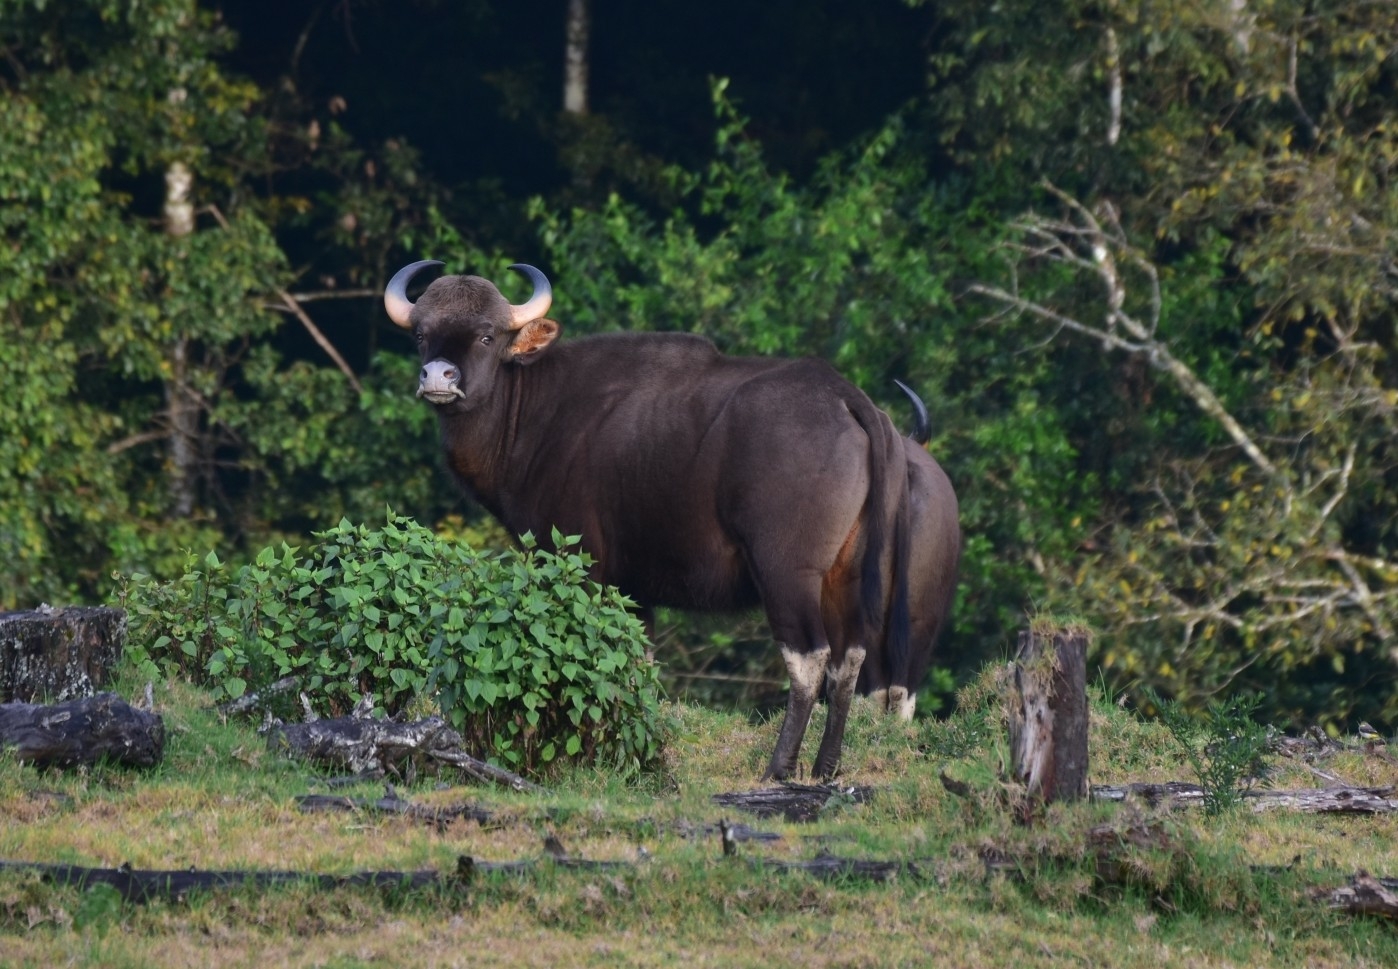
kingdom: Animalia
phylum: Chordata
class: Mammalia
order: Artiodactyla
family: Bovidae
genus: Bos
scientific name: Bos frontalis
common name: Gaur
